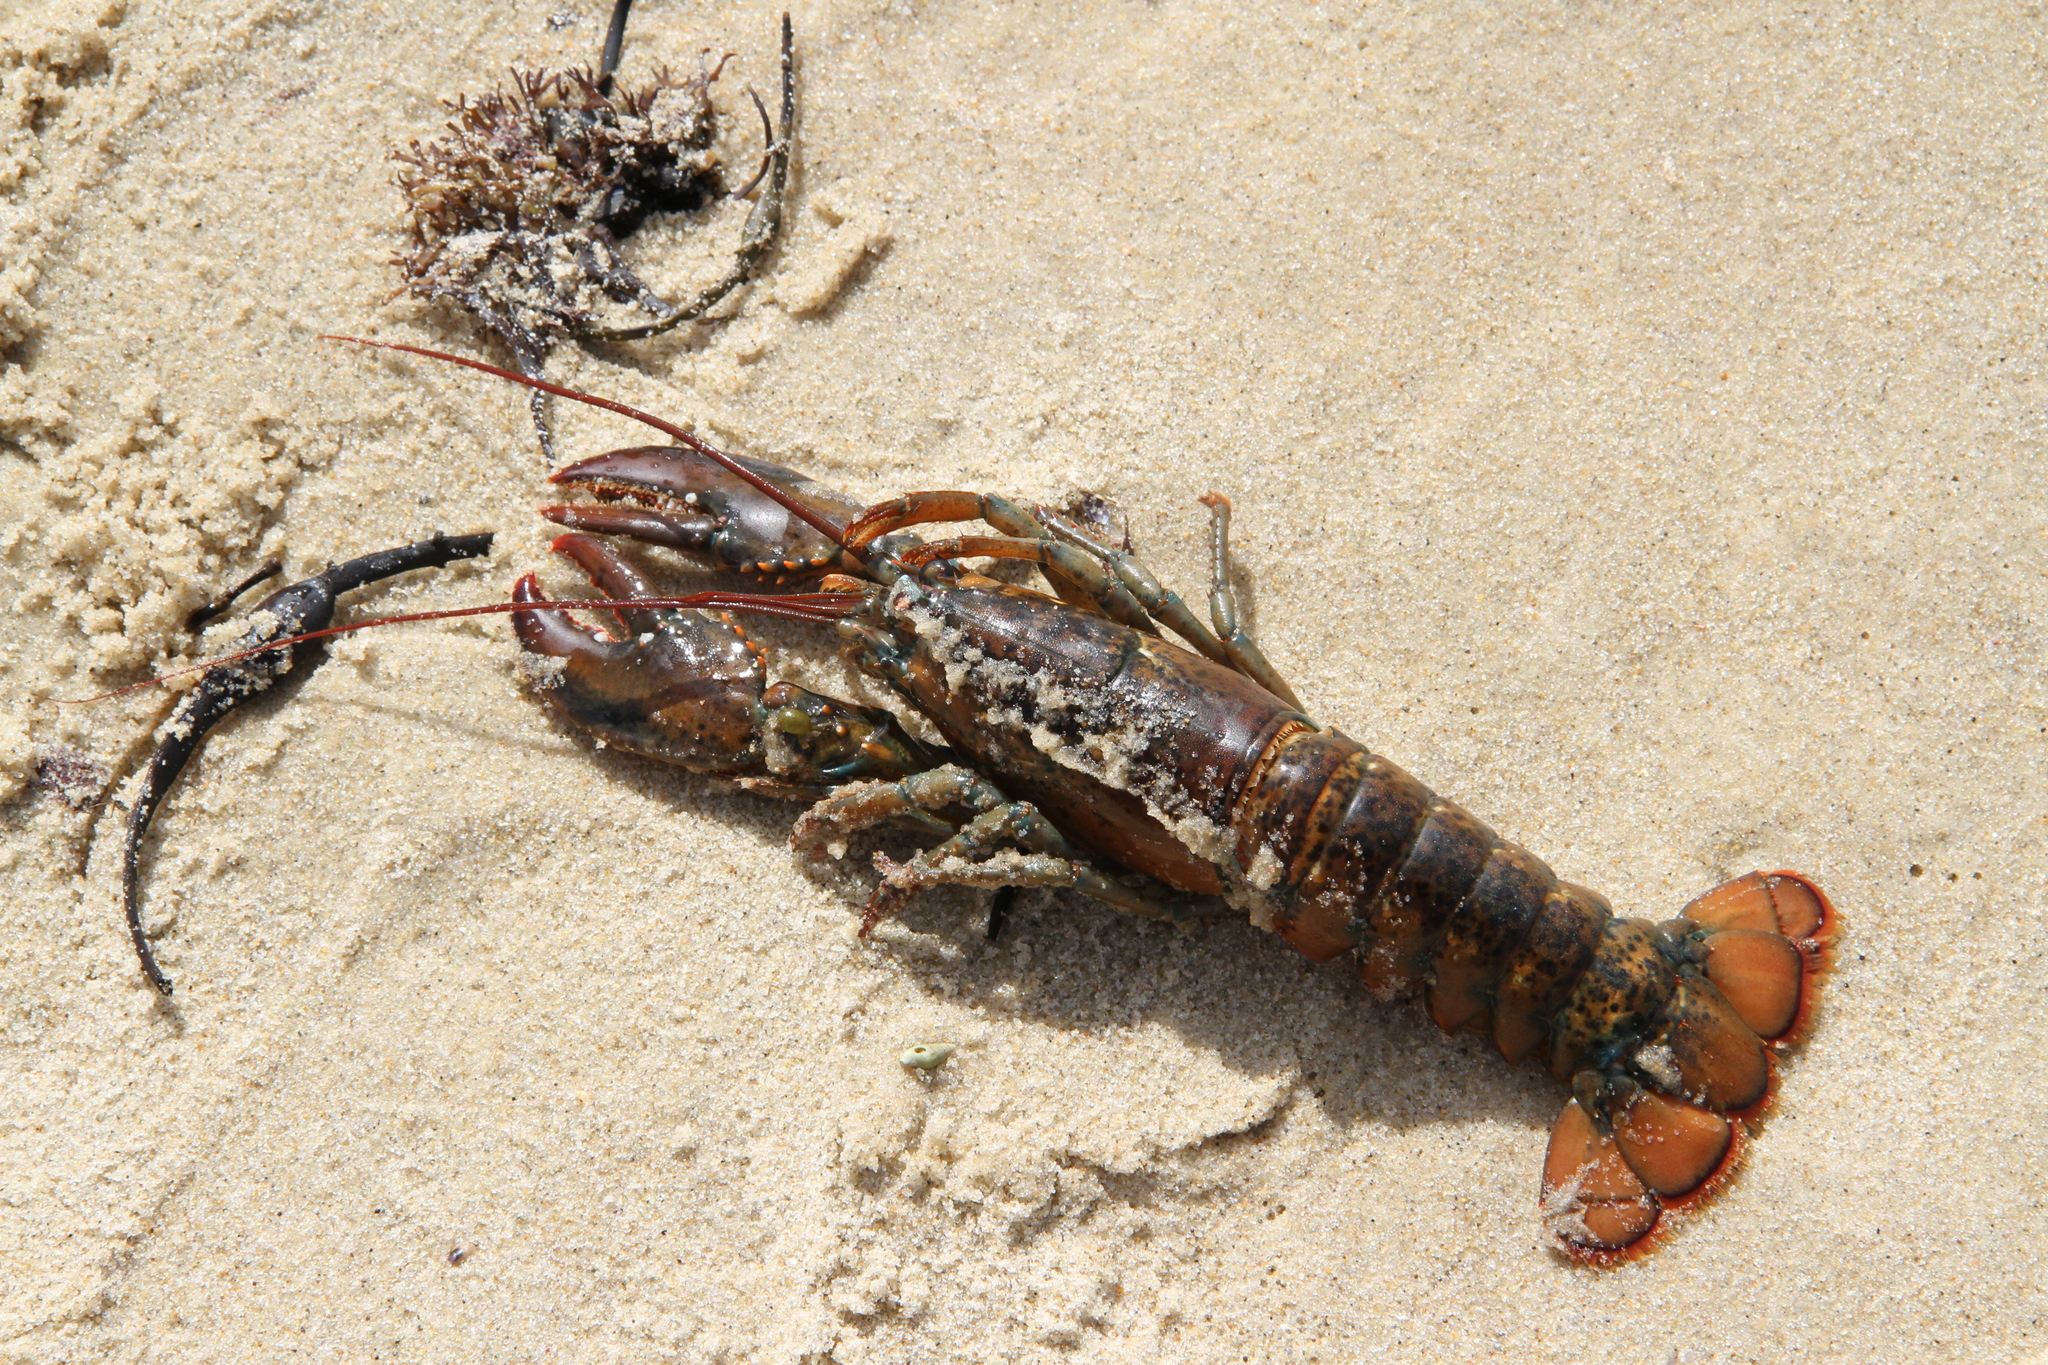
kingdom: Animalia
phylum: Arthropoda
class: Malacostraca
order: Decapoda
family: Nephropidae
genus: Homarus
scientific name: Homarus americanus
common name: American lobster
